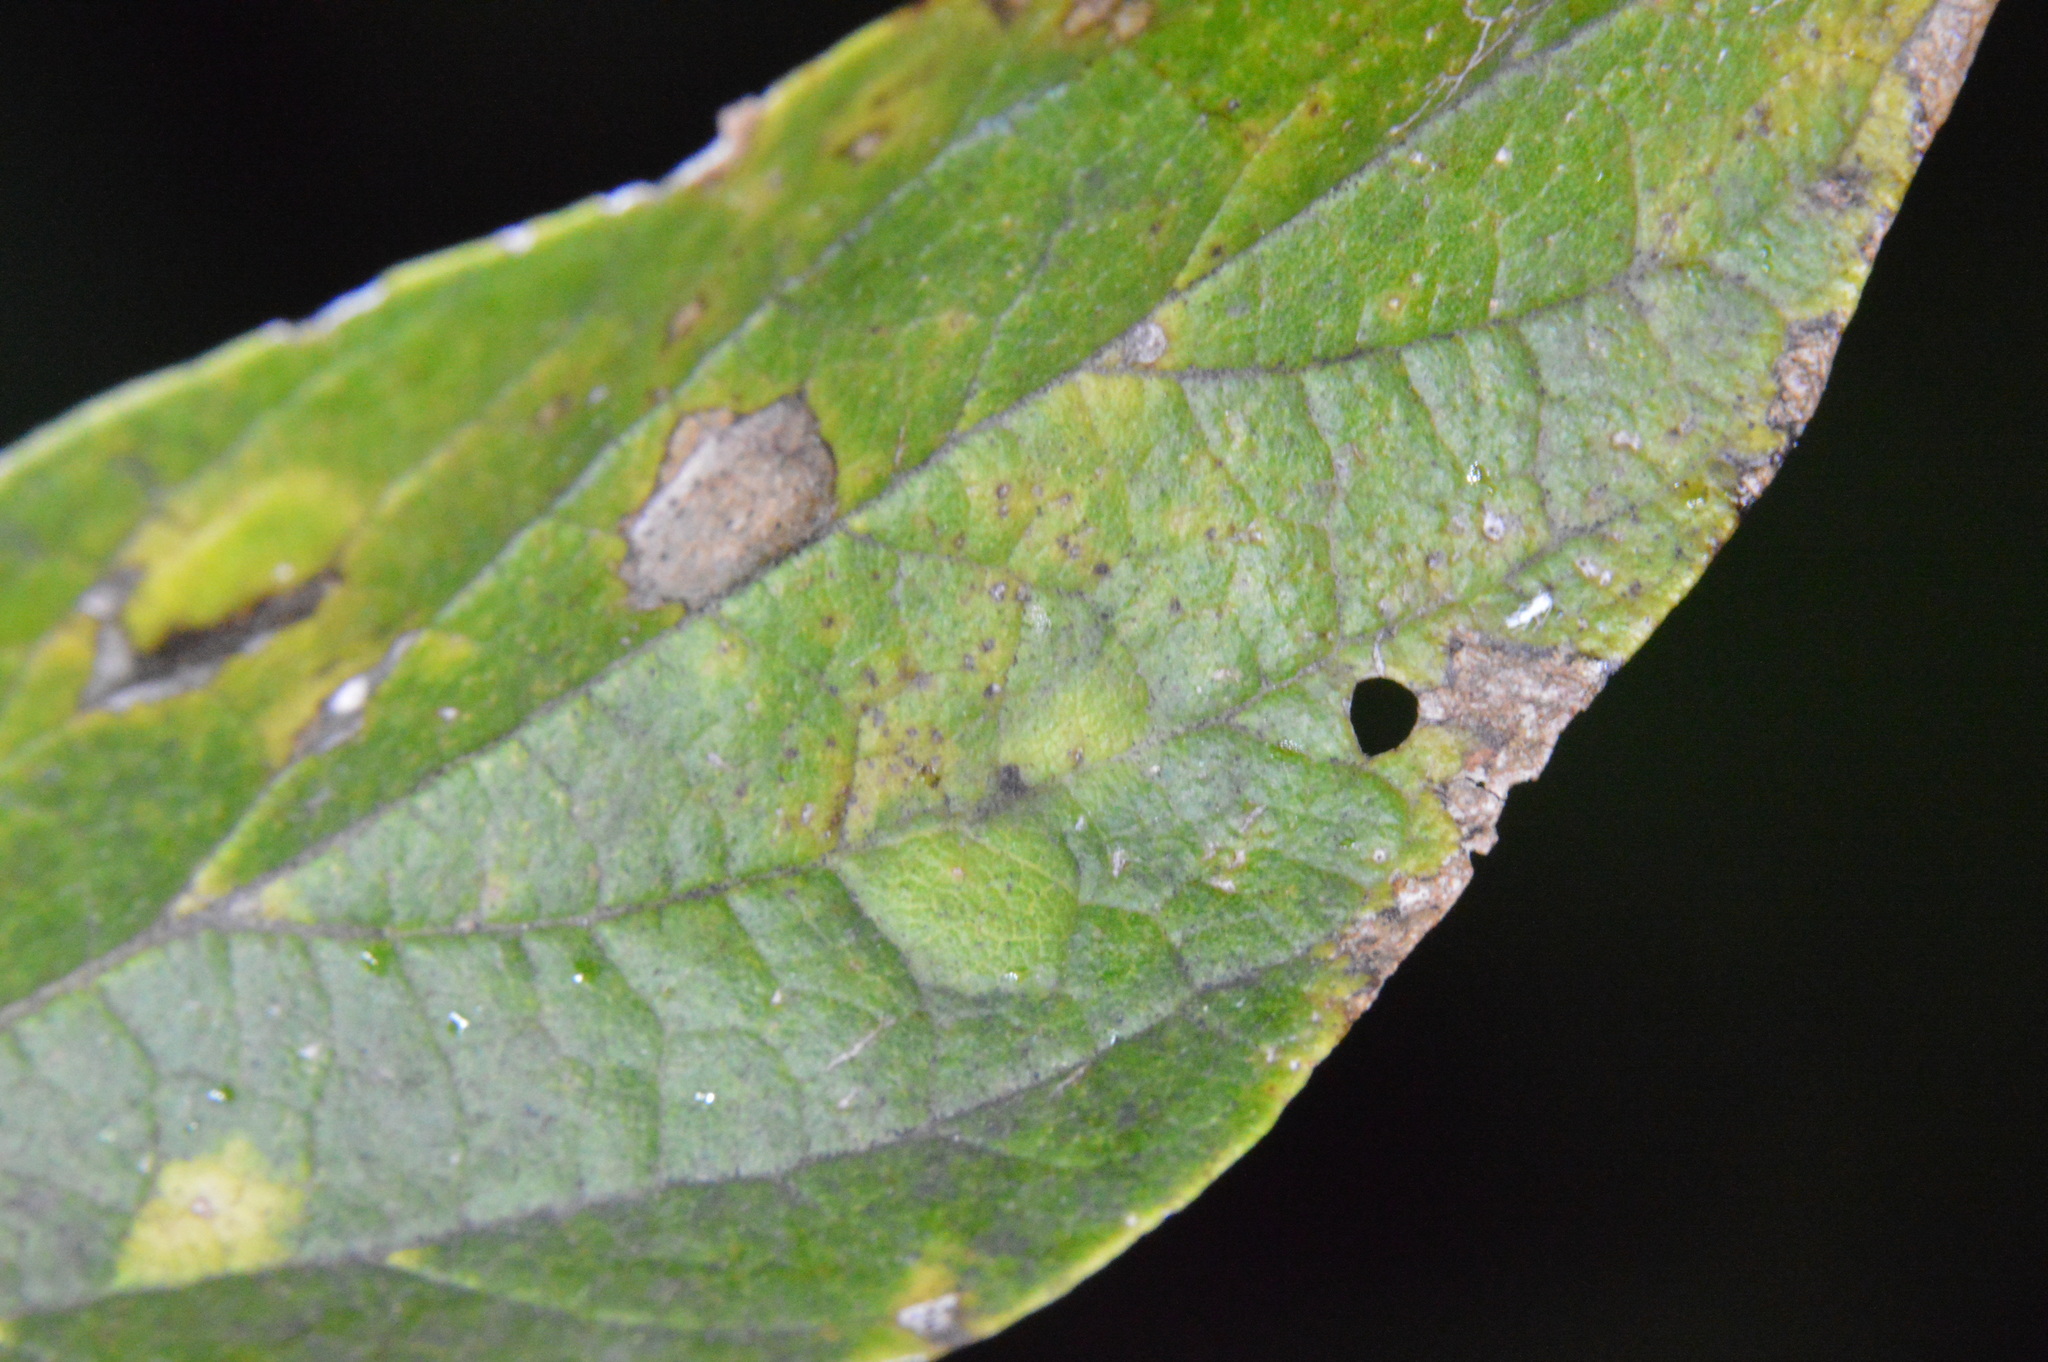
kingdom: Animalia
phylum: Arthropoda
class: Insecta
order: Hemiptera
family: Aphalaridae
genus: Pachypsylla
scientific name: Pachypsylla celtidisvesicula
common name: Hackberry blister gall psyllid
